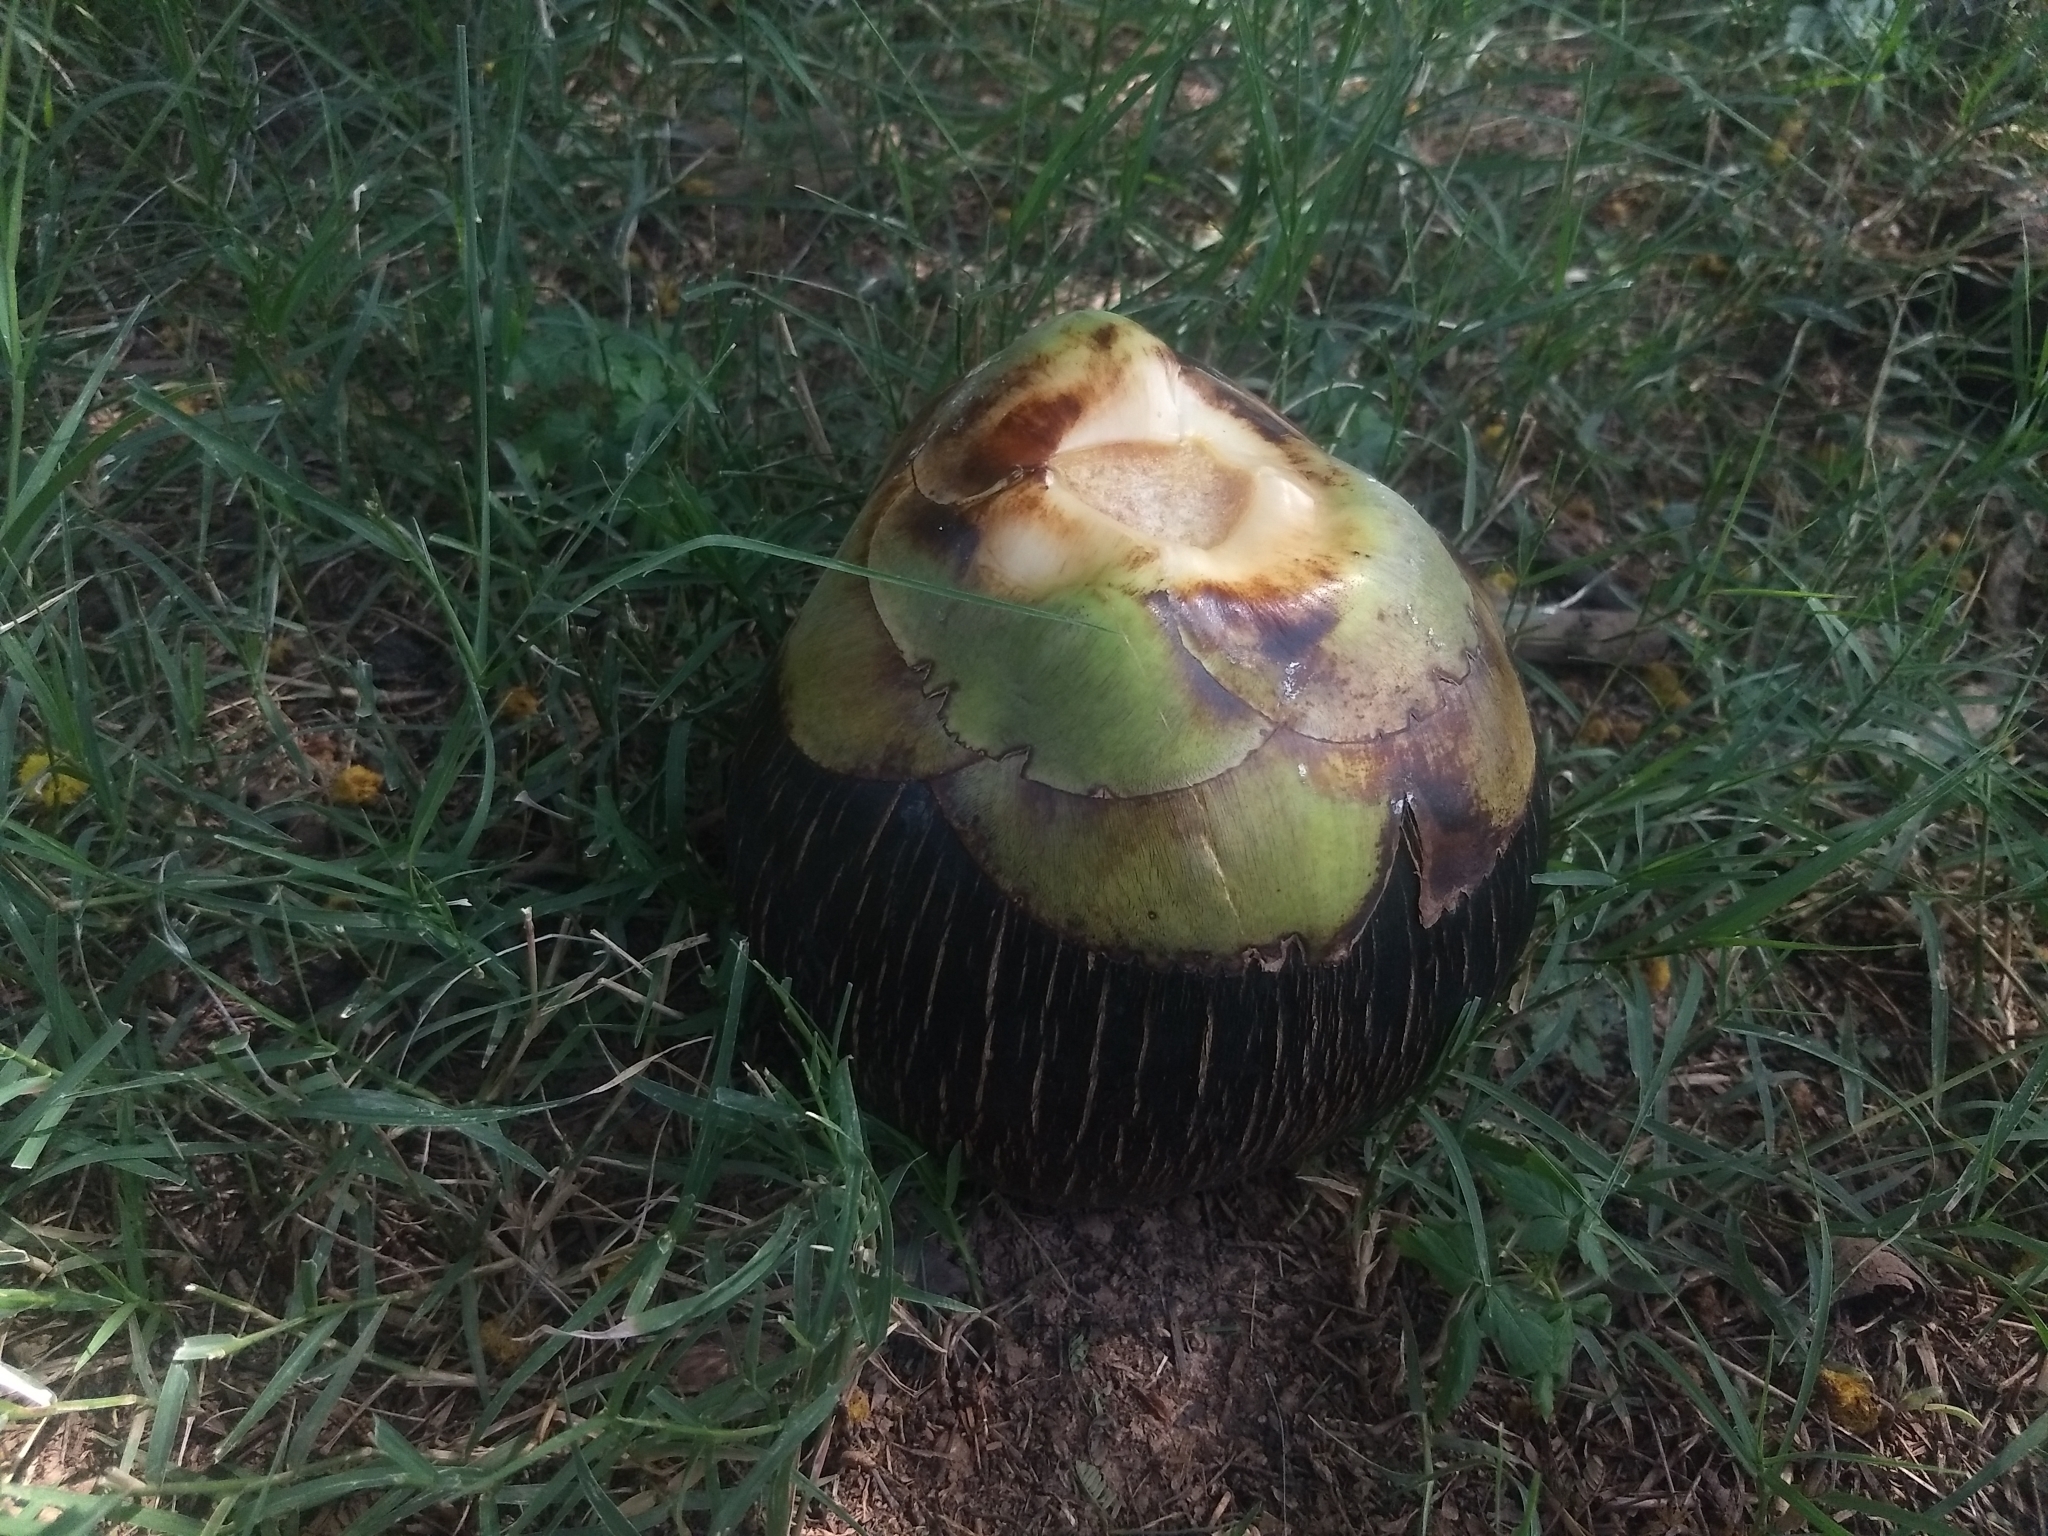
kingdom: Plantae
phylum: Tracheophyta
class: Liliopsida
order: Arecales
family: Arecaceae
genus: Borassus
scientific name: Borassus flabellifer
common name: Palmyra palm
